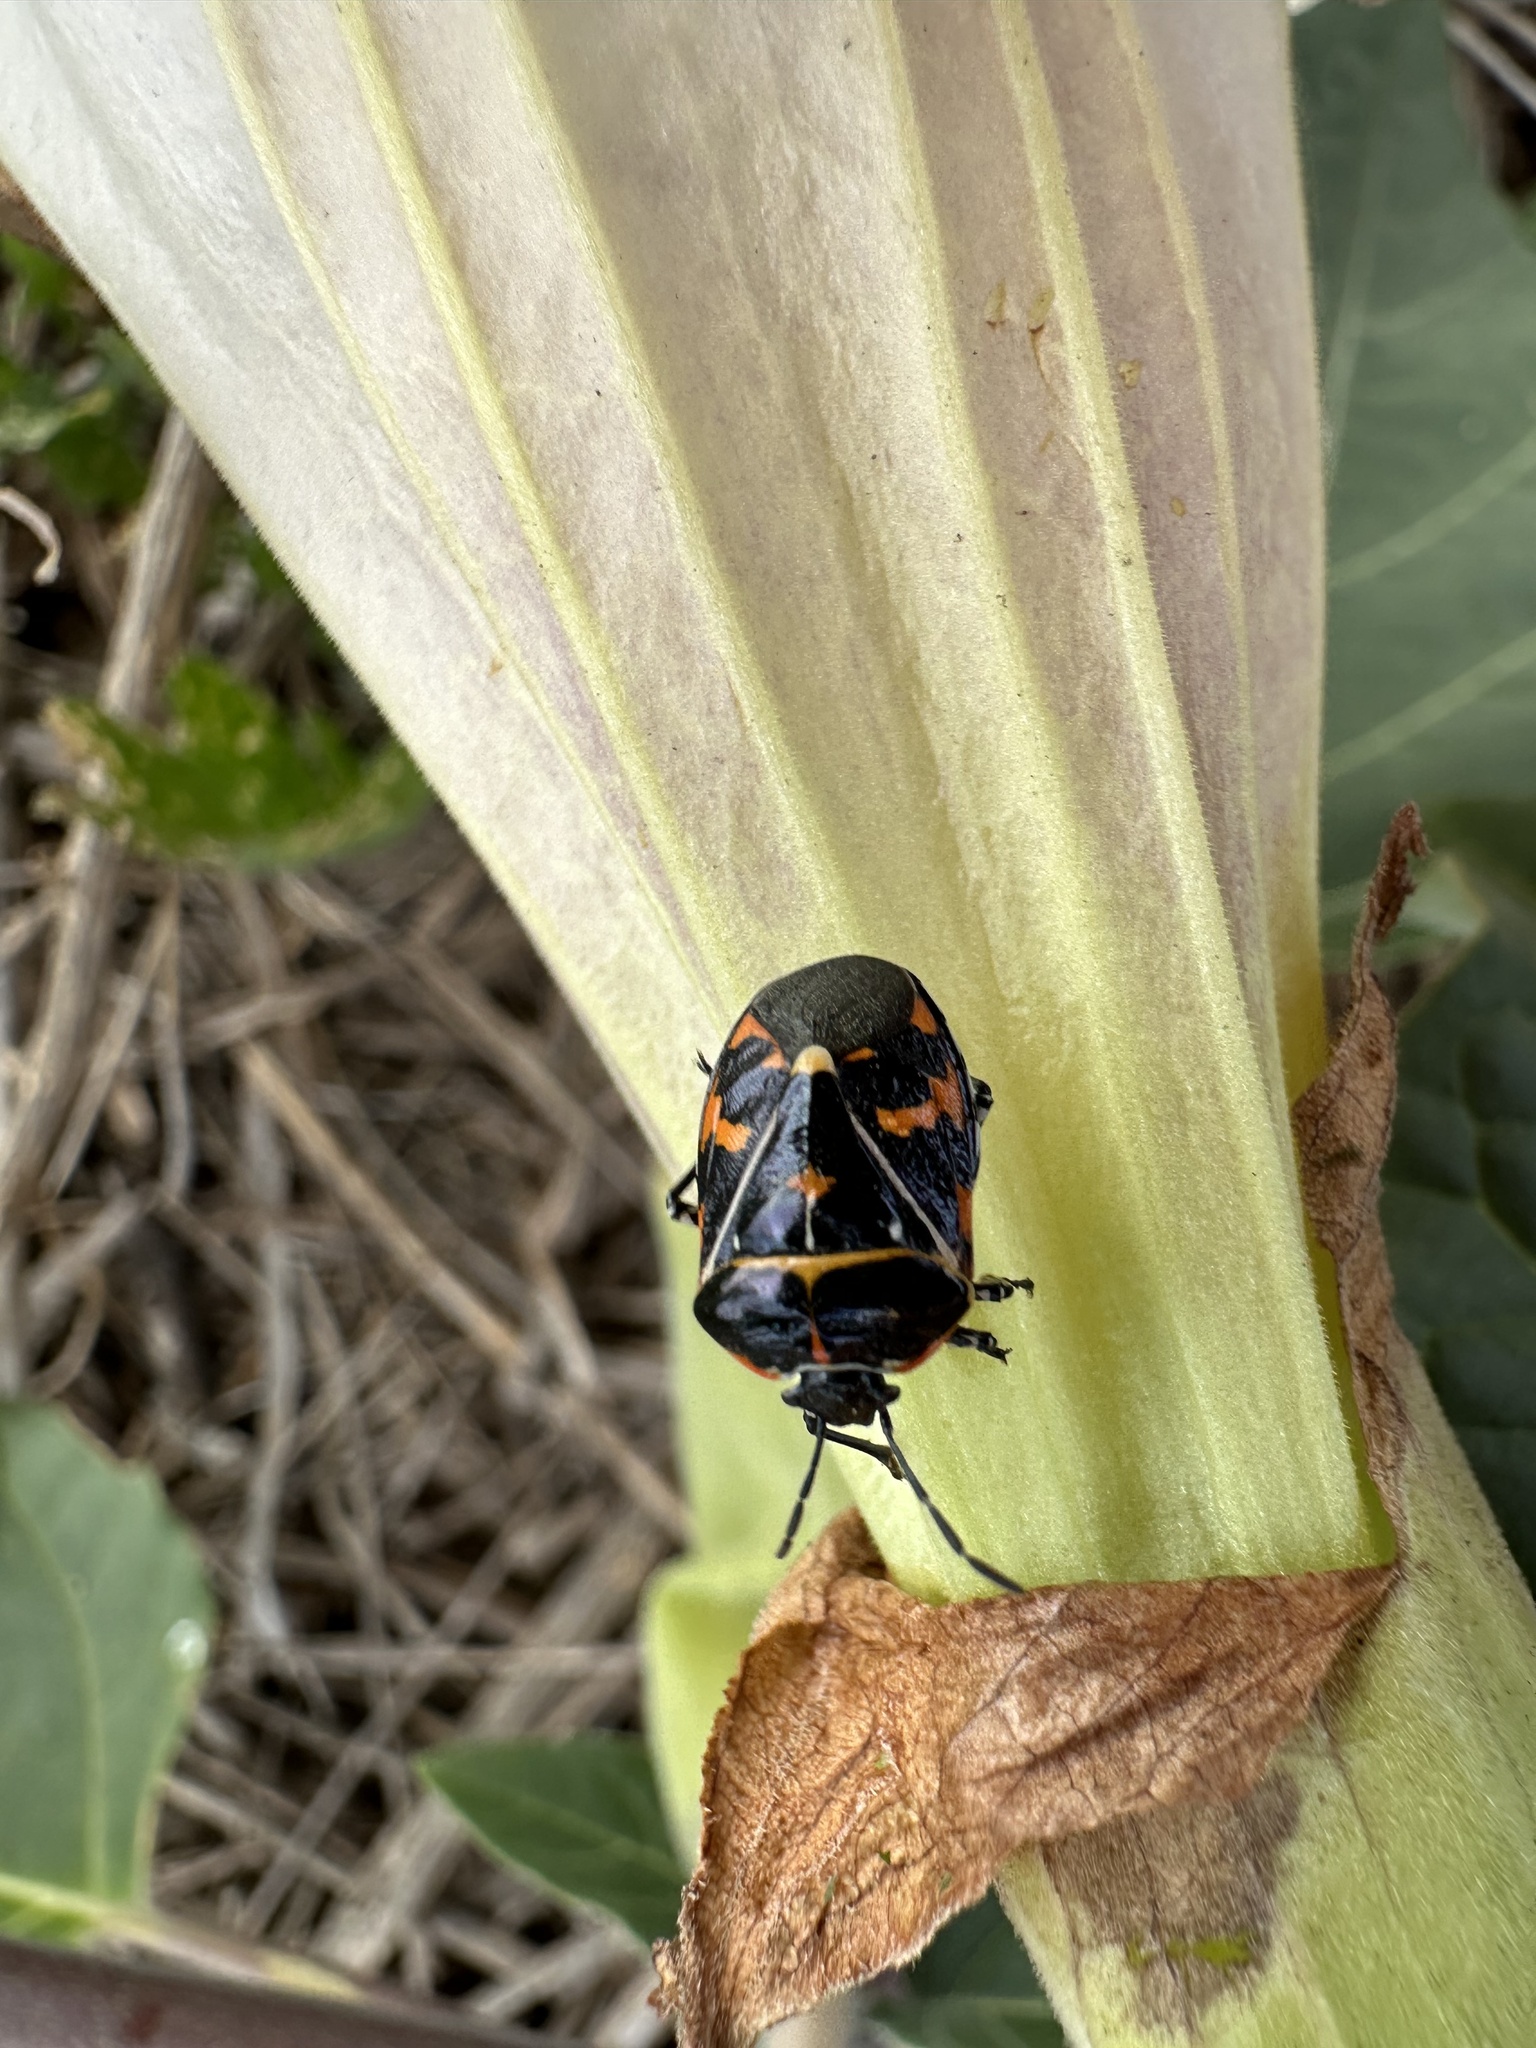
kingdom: Plantae
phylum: Tracheophyta
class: Magnoliopsida
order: Solanales
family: Solanaceae
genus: Datura
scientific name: Datura wrightii
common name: Sacred thorn-apple
